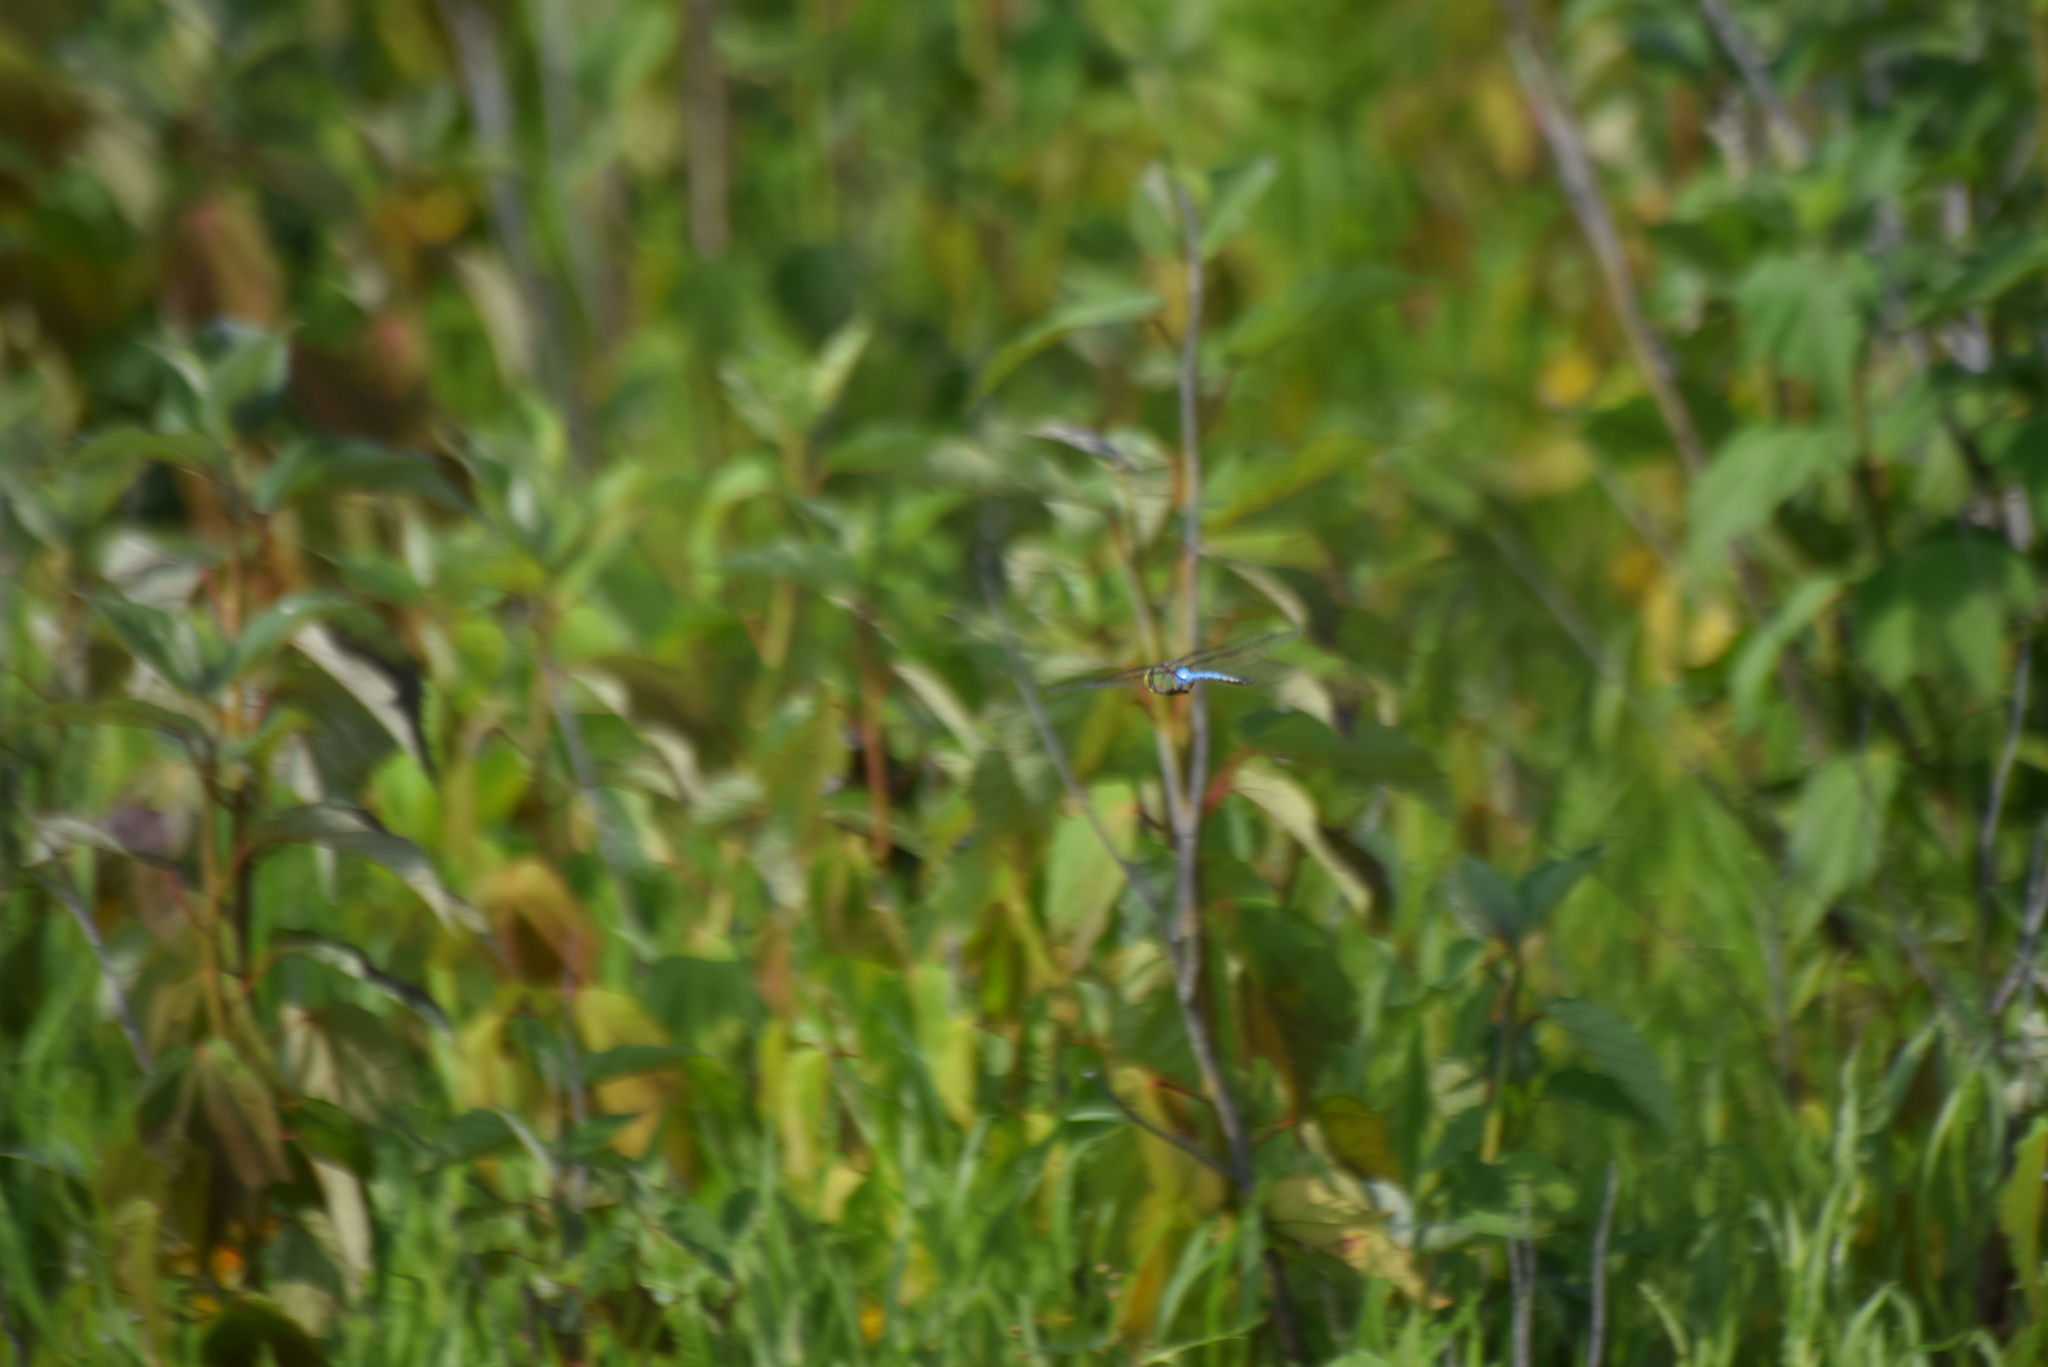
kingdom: Animalia
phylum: Arthropoda
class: Insecta
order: Odonata
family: Aeshnidae
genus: Anax
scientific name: Anax junius
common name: Common green darner
